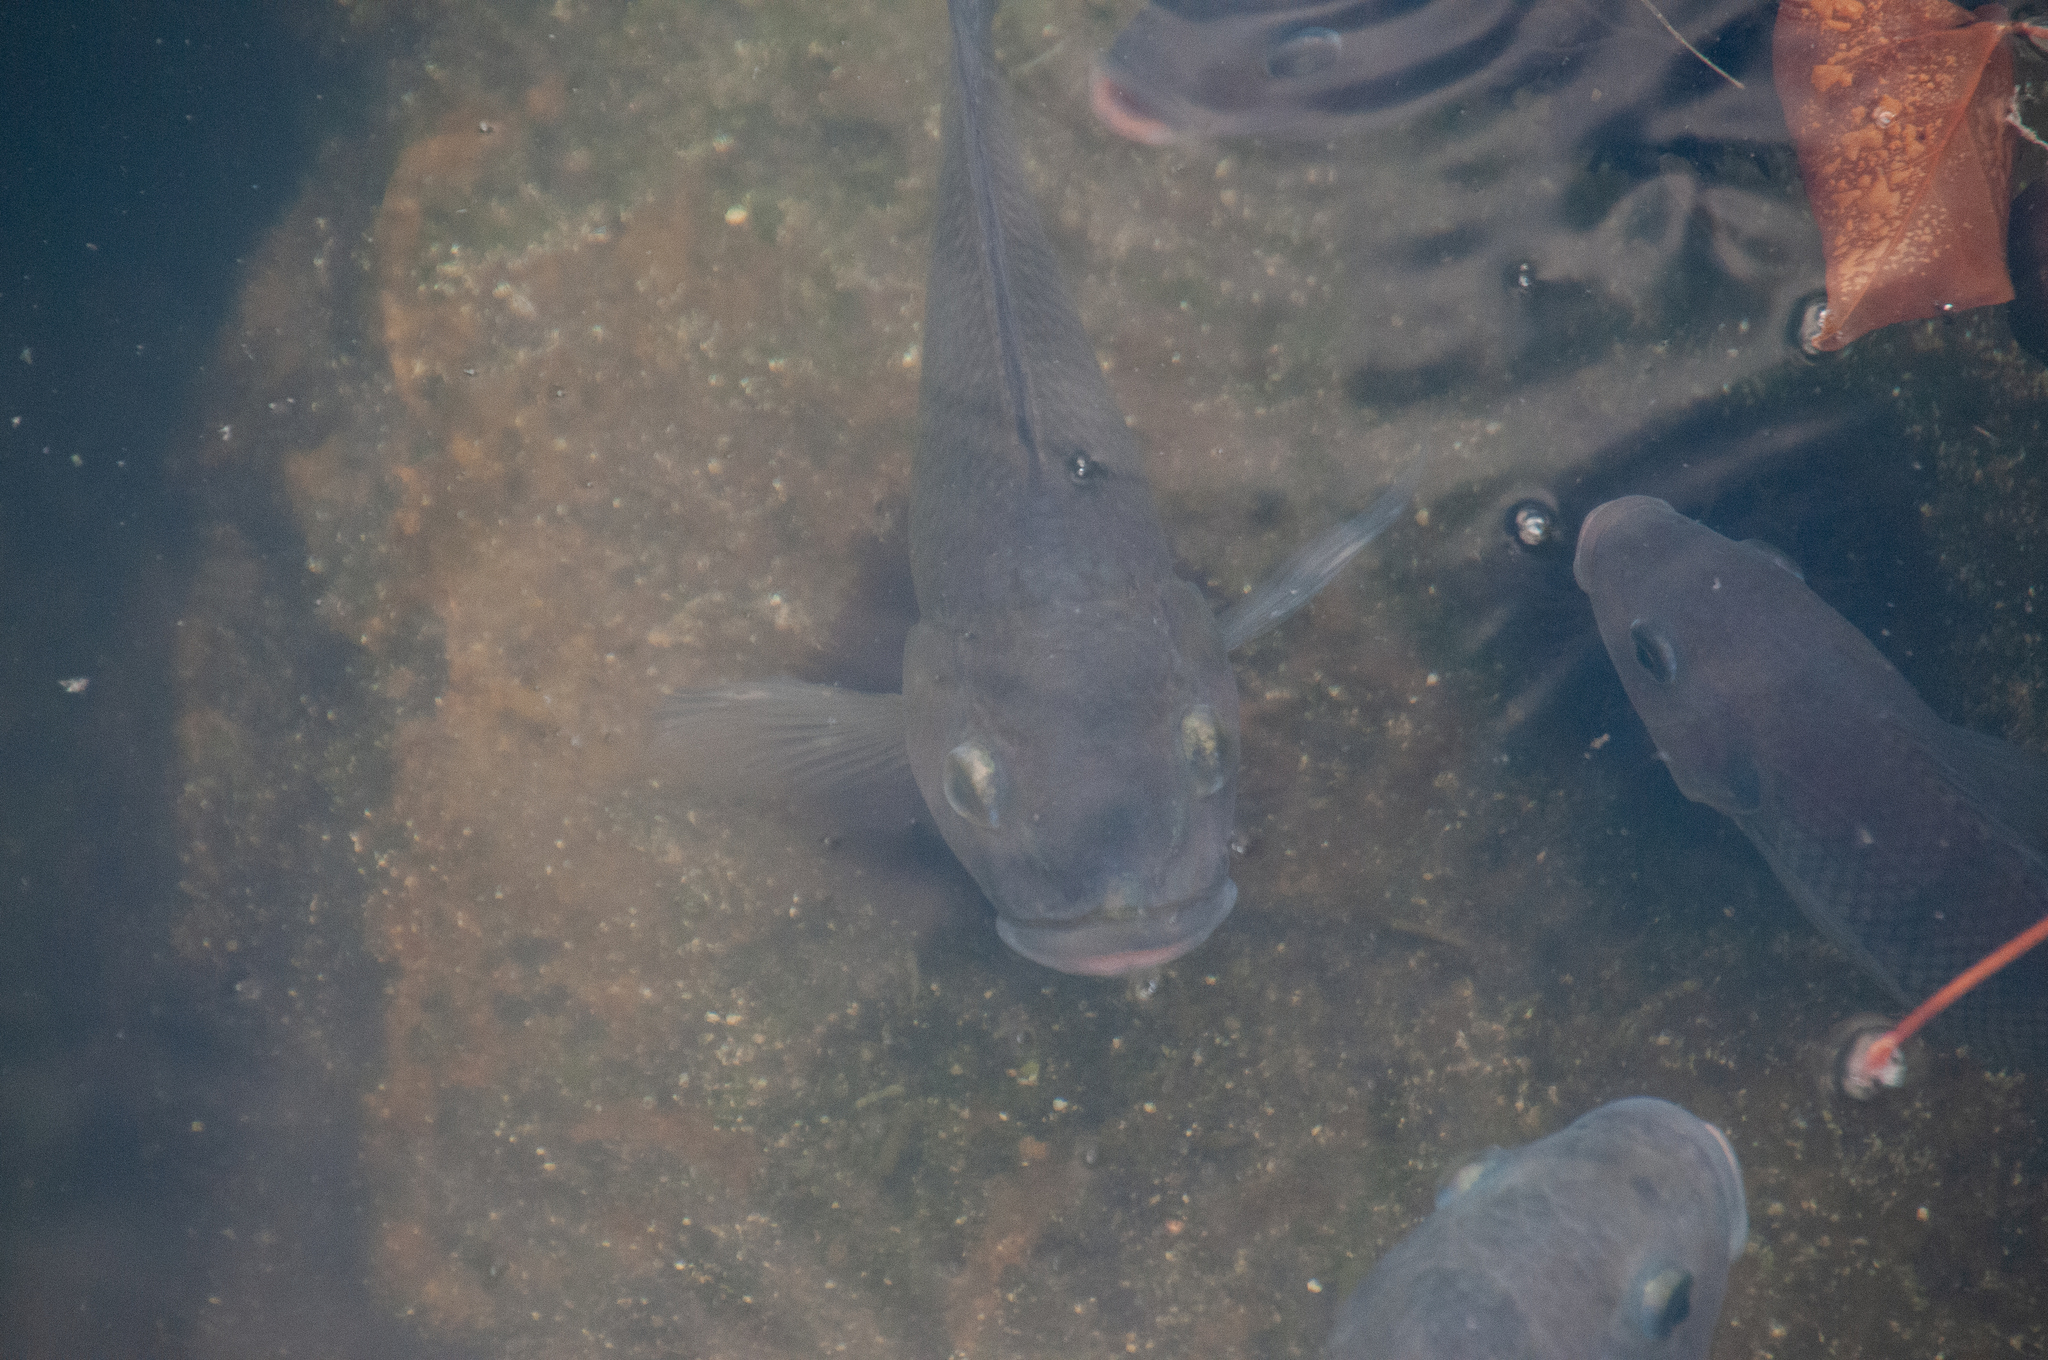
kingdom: Animalia
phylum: Chordata
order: Perciformes
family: Cichlidae
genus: Sarotherodon
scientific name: Sarotherodon melanotheron
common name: Blackchin tilapia
